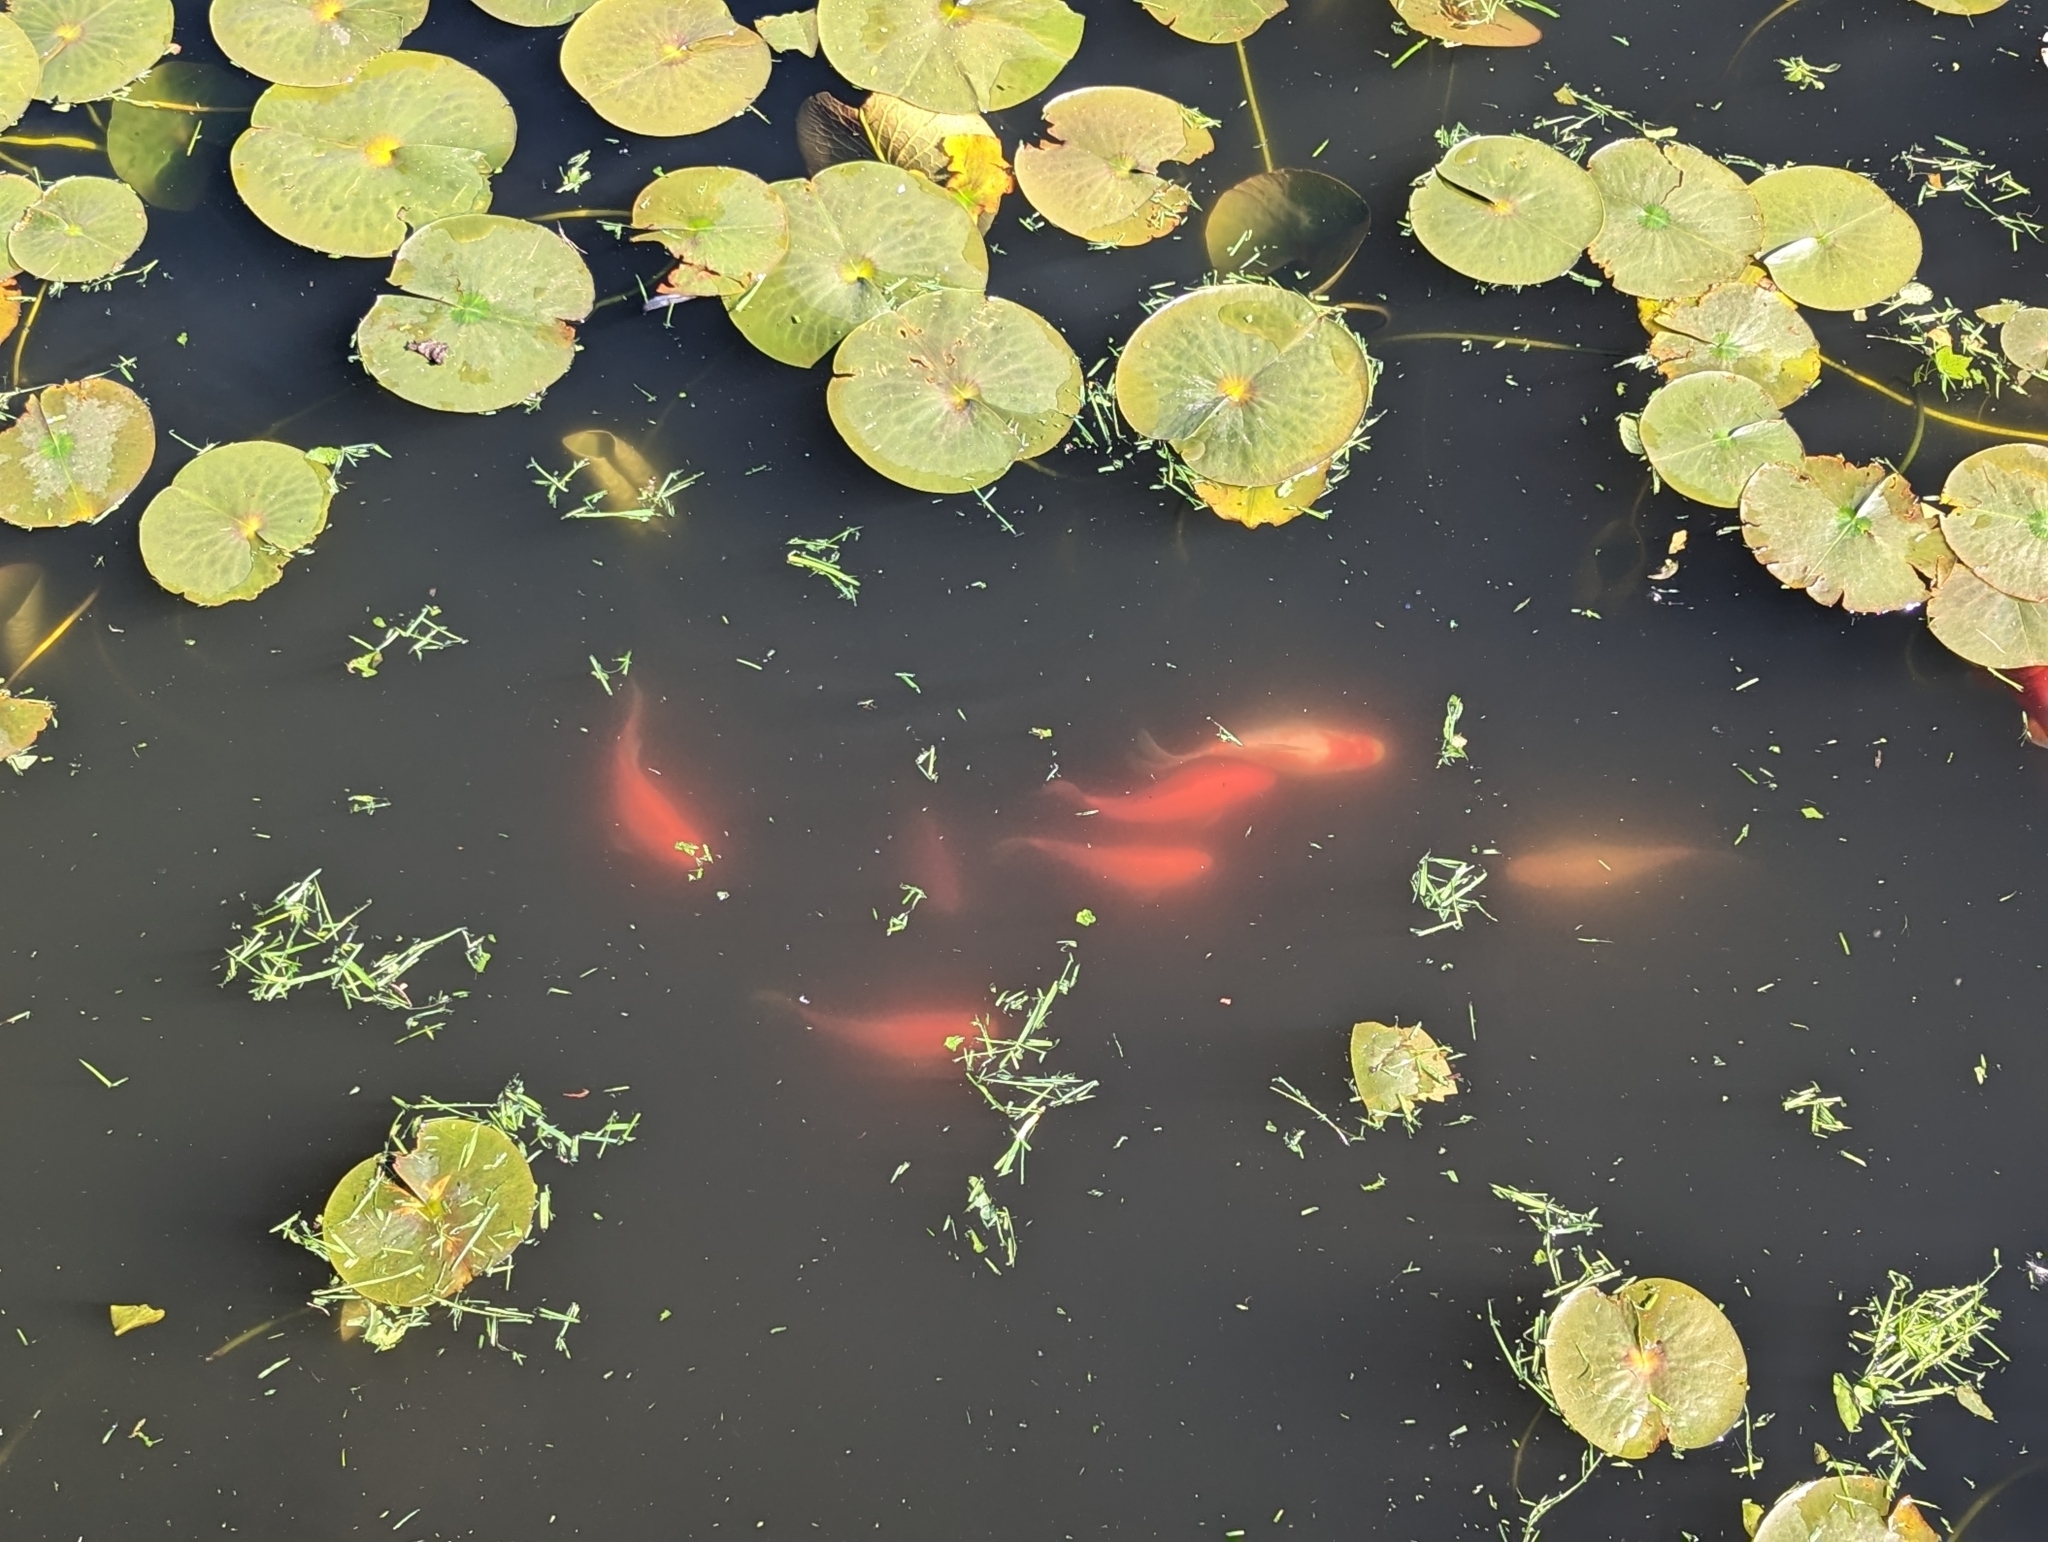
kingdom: Animalia
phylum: Chordata
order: Cypriniformes
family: Cyprinidae
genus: Carassius
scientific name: Carassius auratus
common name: Goldfish
